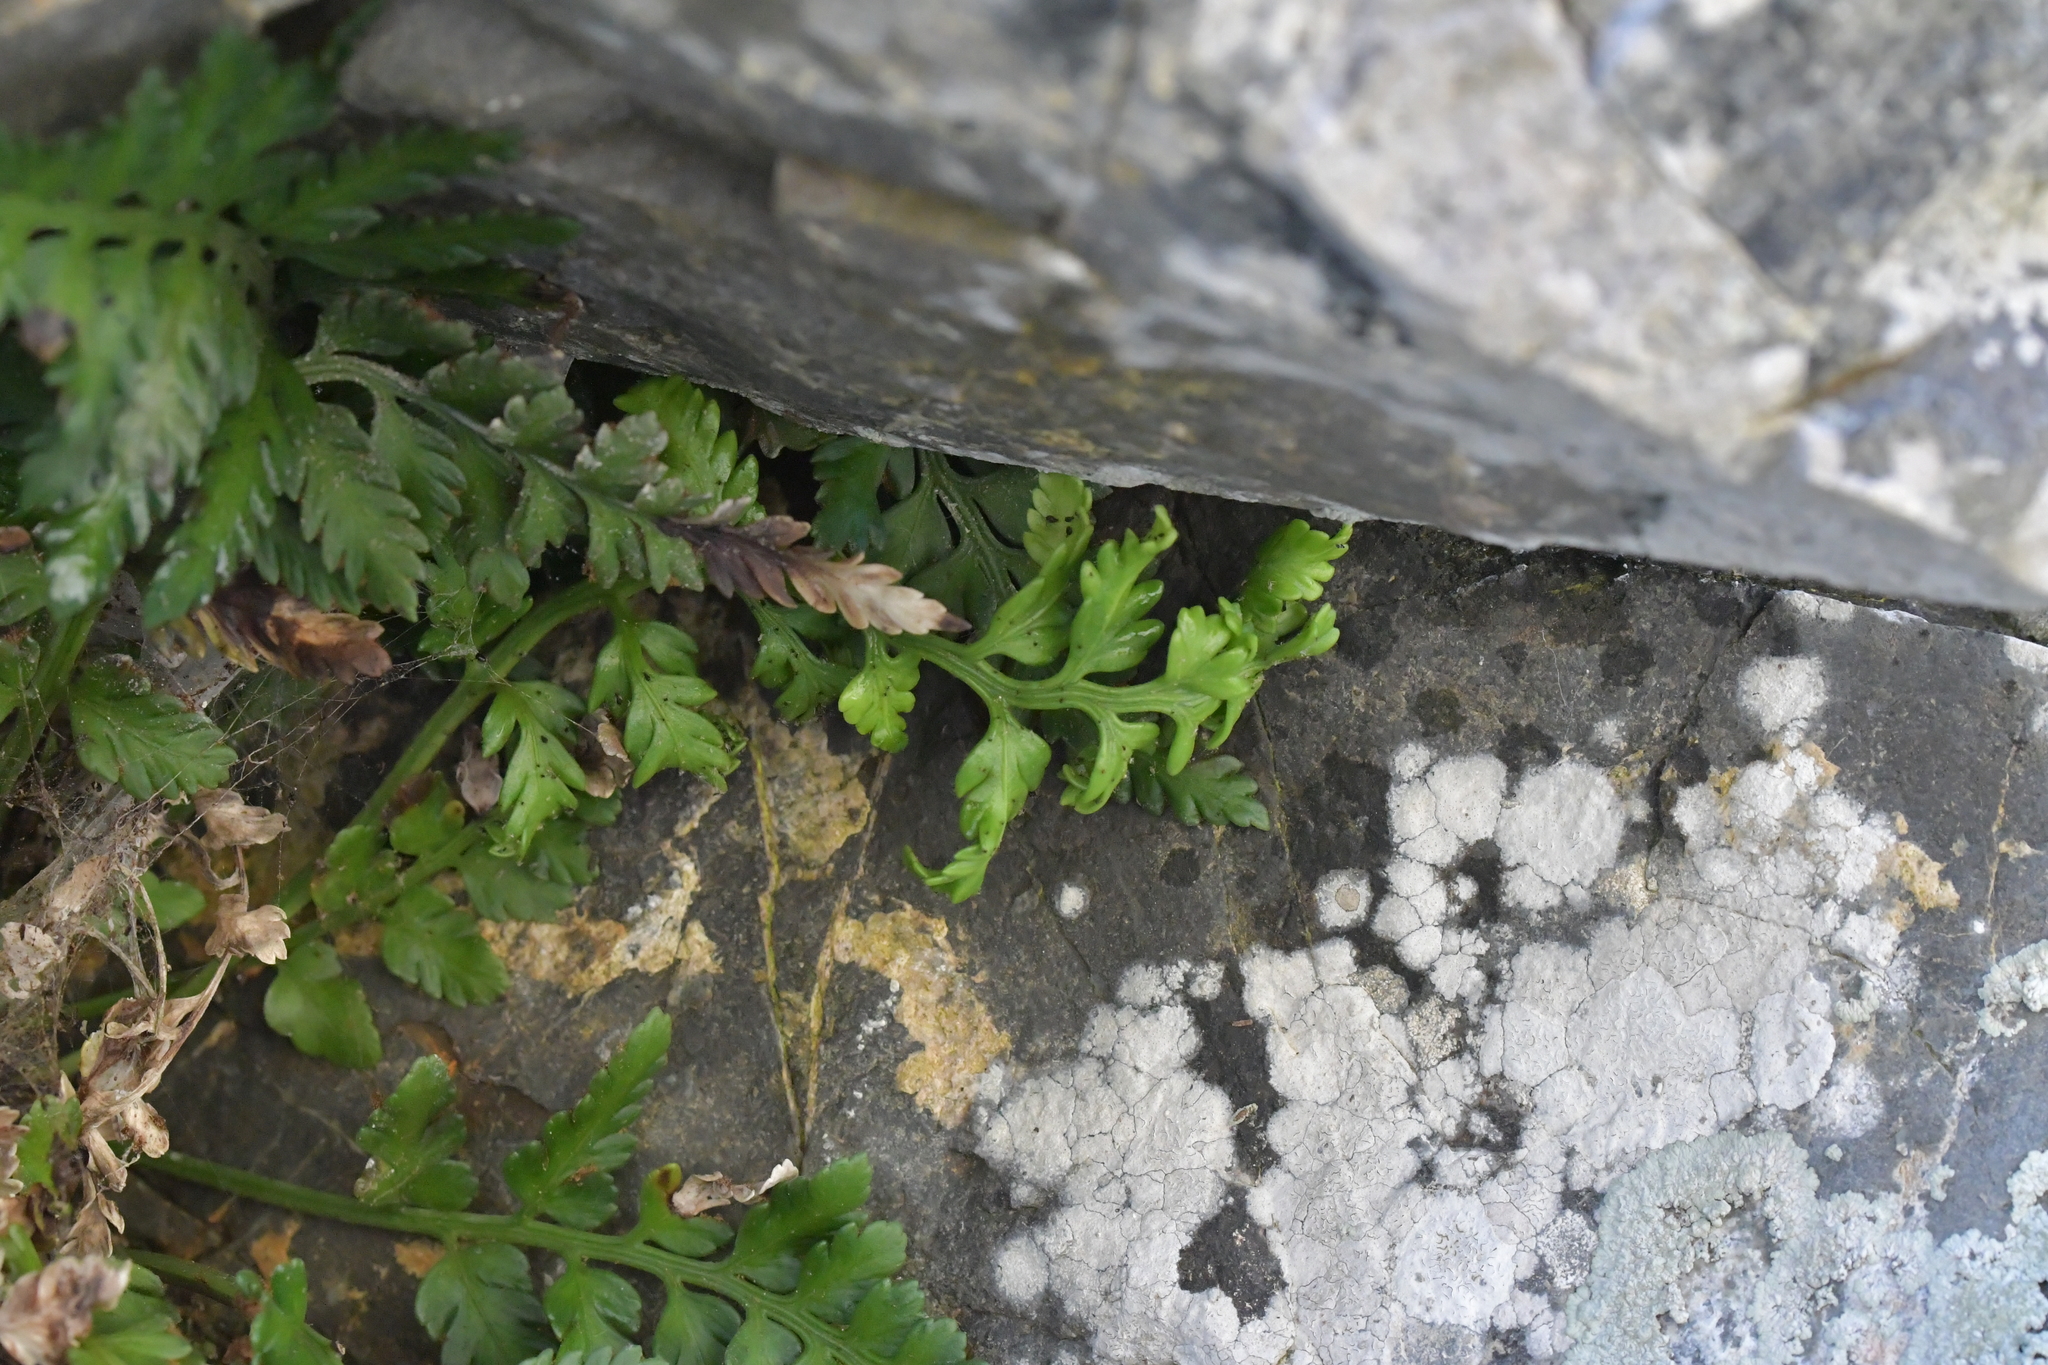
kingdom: Plantae
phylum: Tracheophyta
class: Polypodiopsida
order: Polypodiales
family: Aspleniaceae
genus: Asplenium
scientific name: Asplenium appendiculatum
